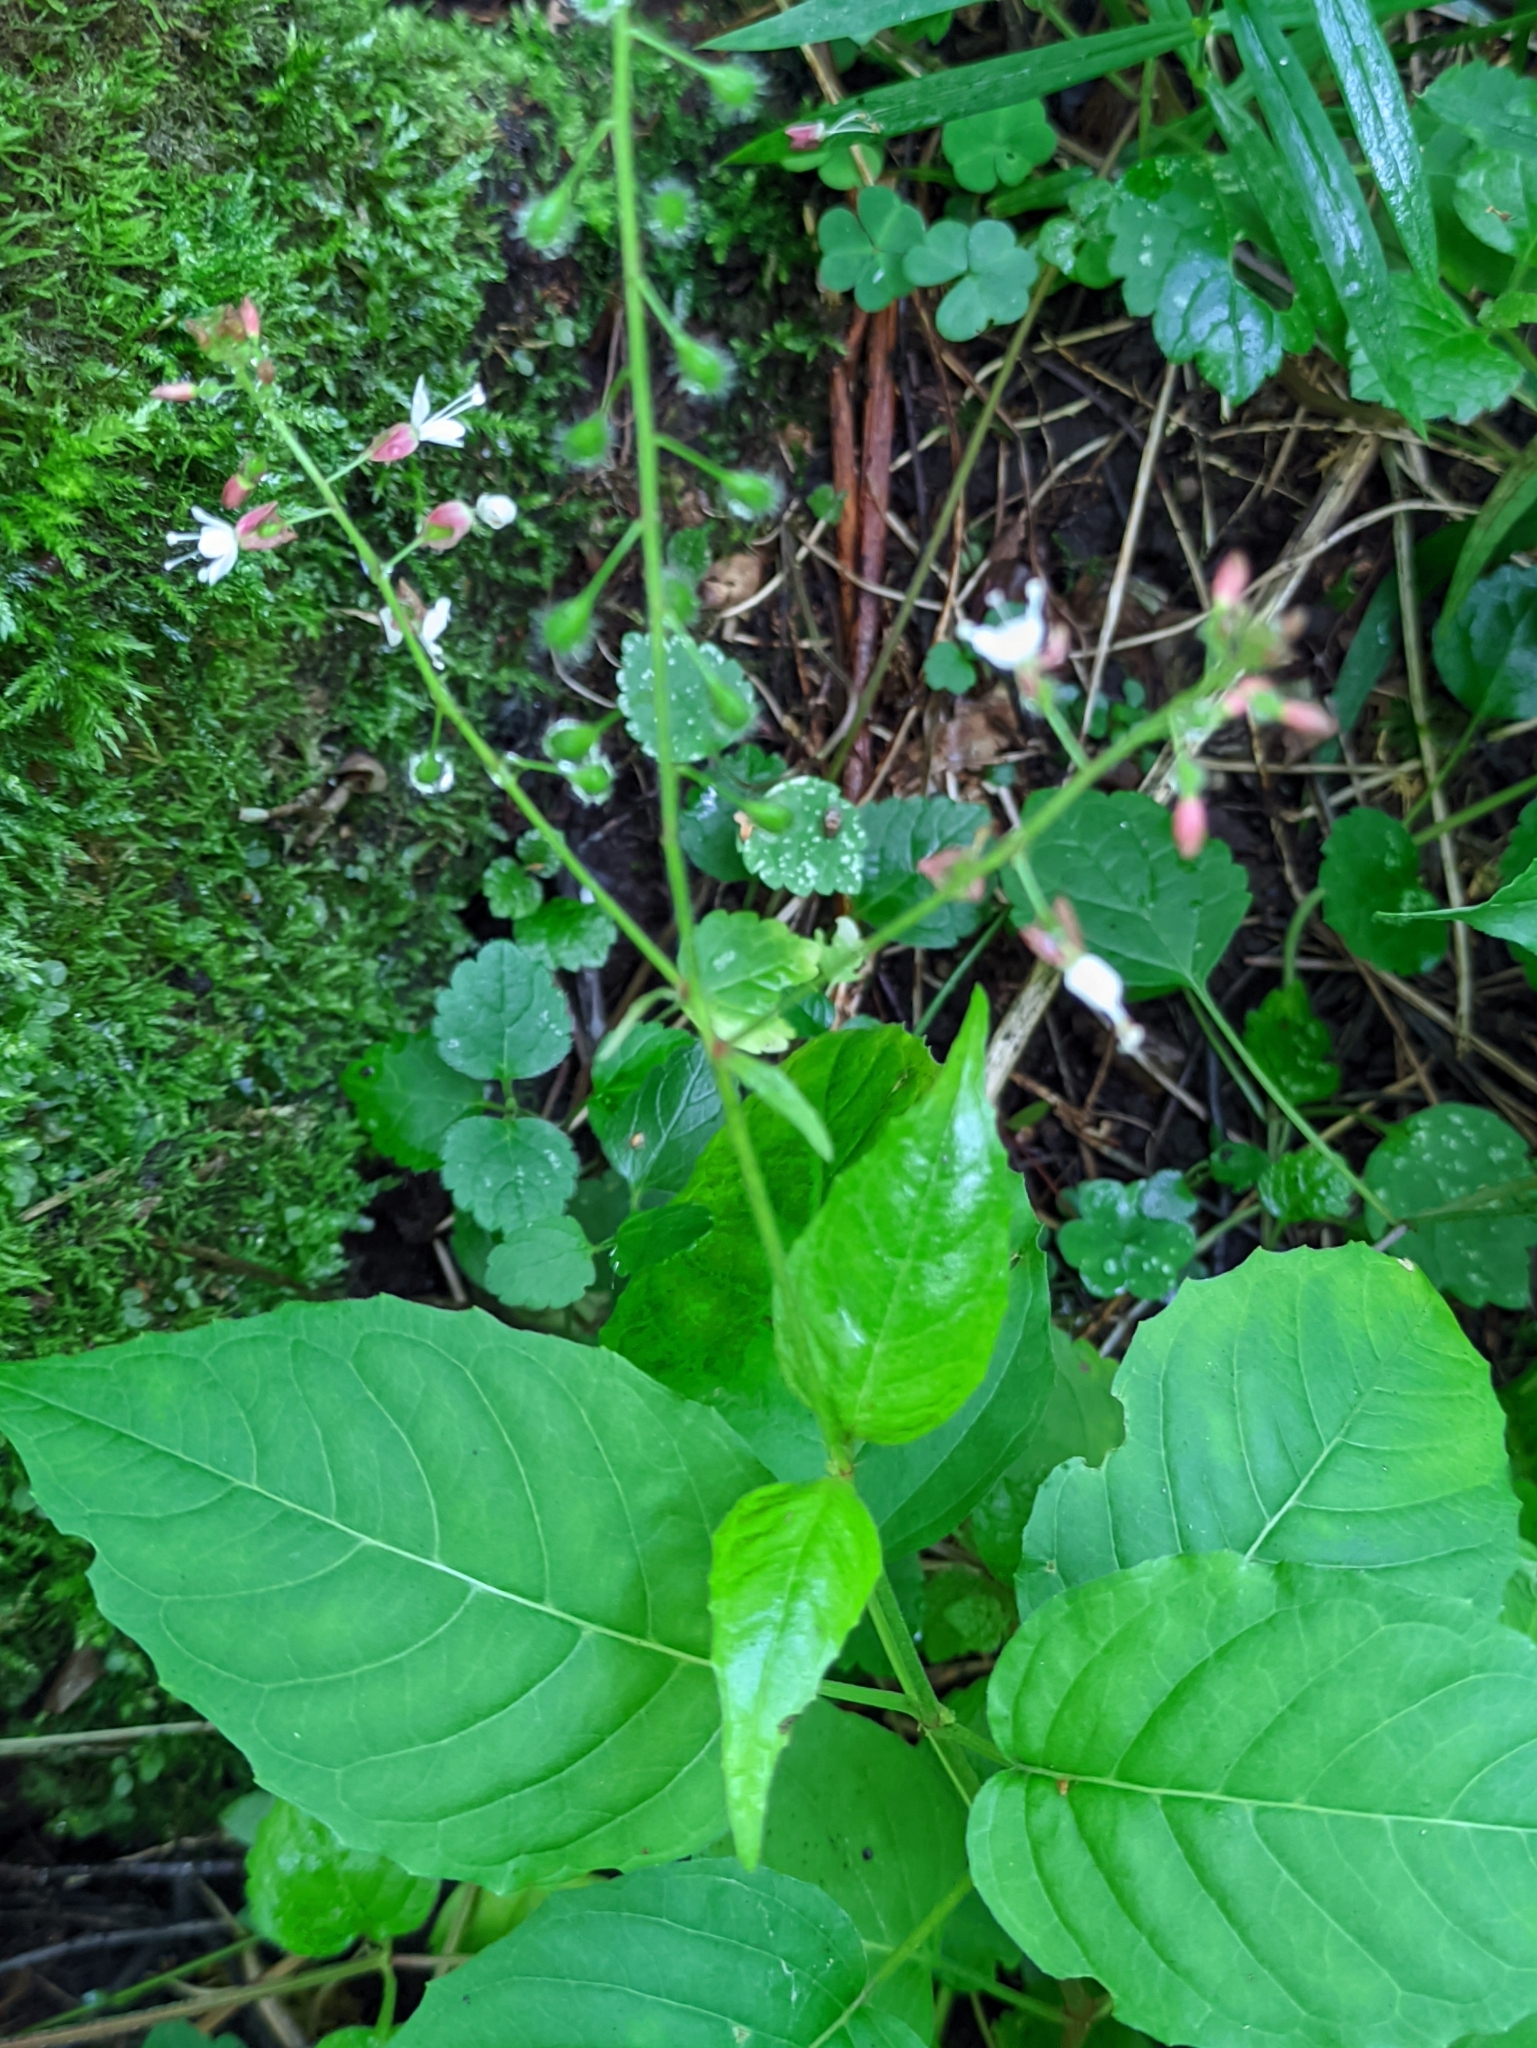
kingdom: Plantae
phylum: Tracheophyta
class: Magnoliopsida
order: Myrtales
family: Onagraceae
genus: Circaea
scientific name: Circaea lutetiana
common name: Enchanter's-nightshade
